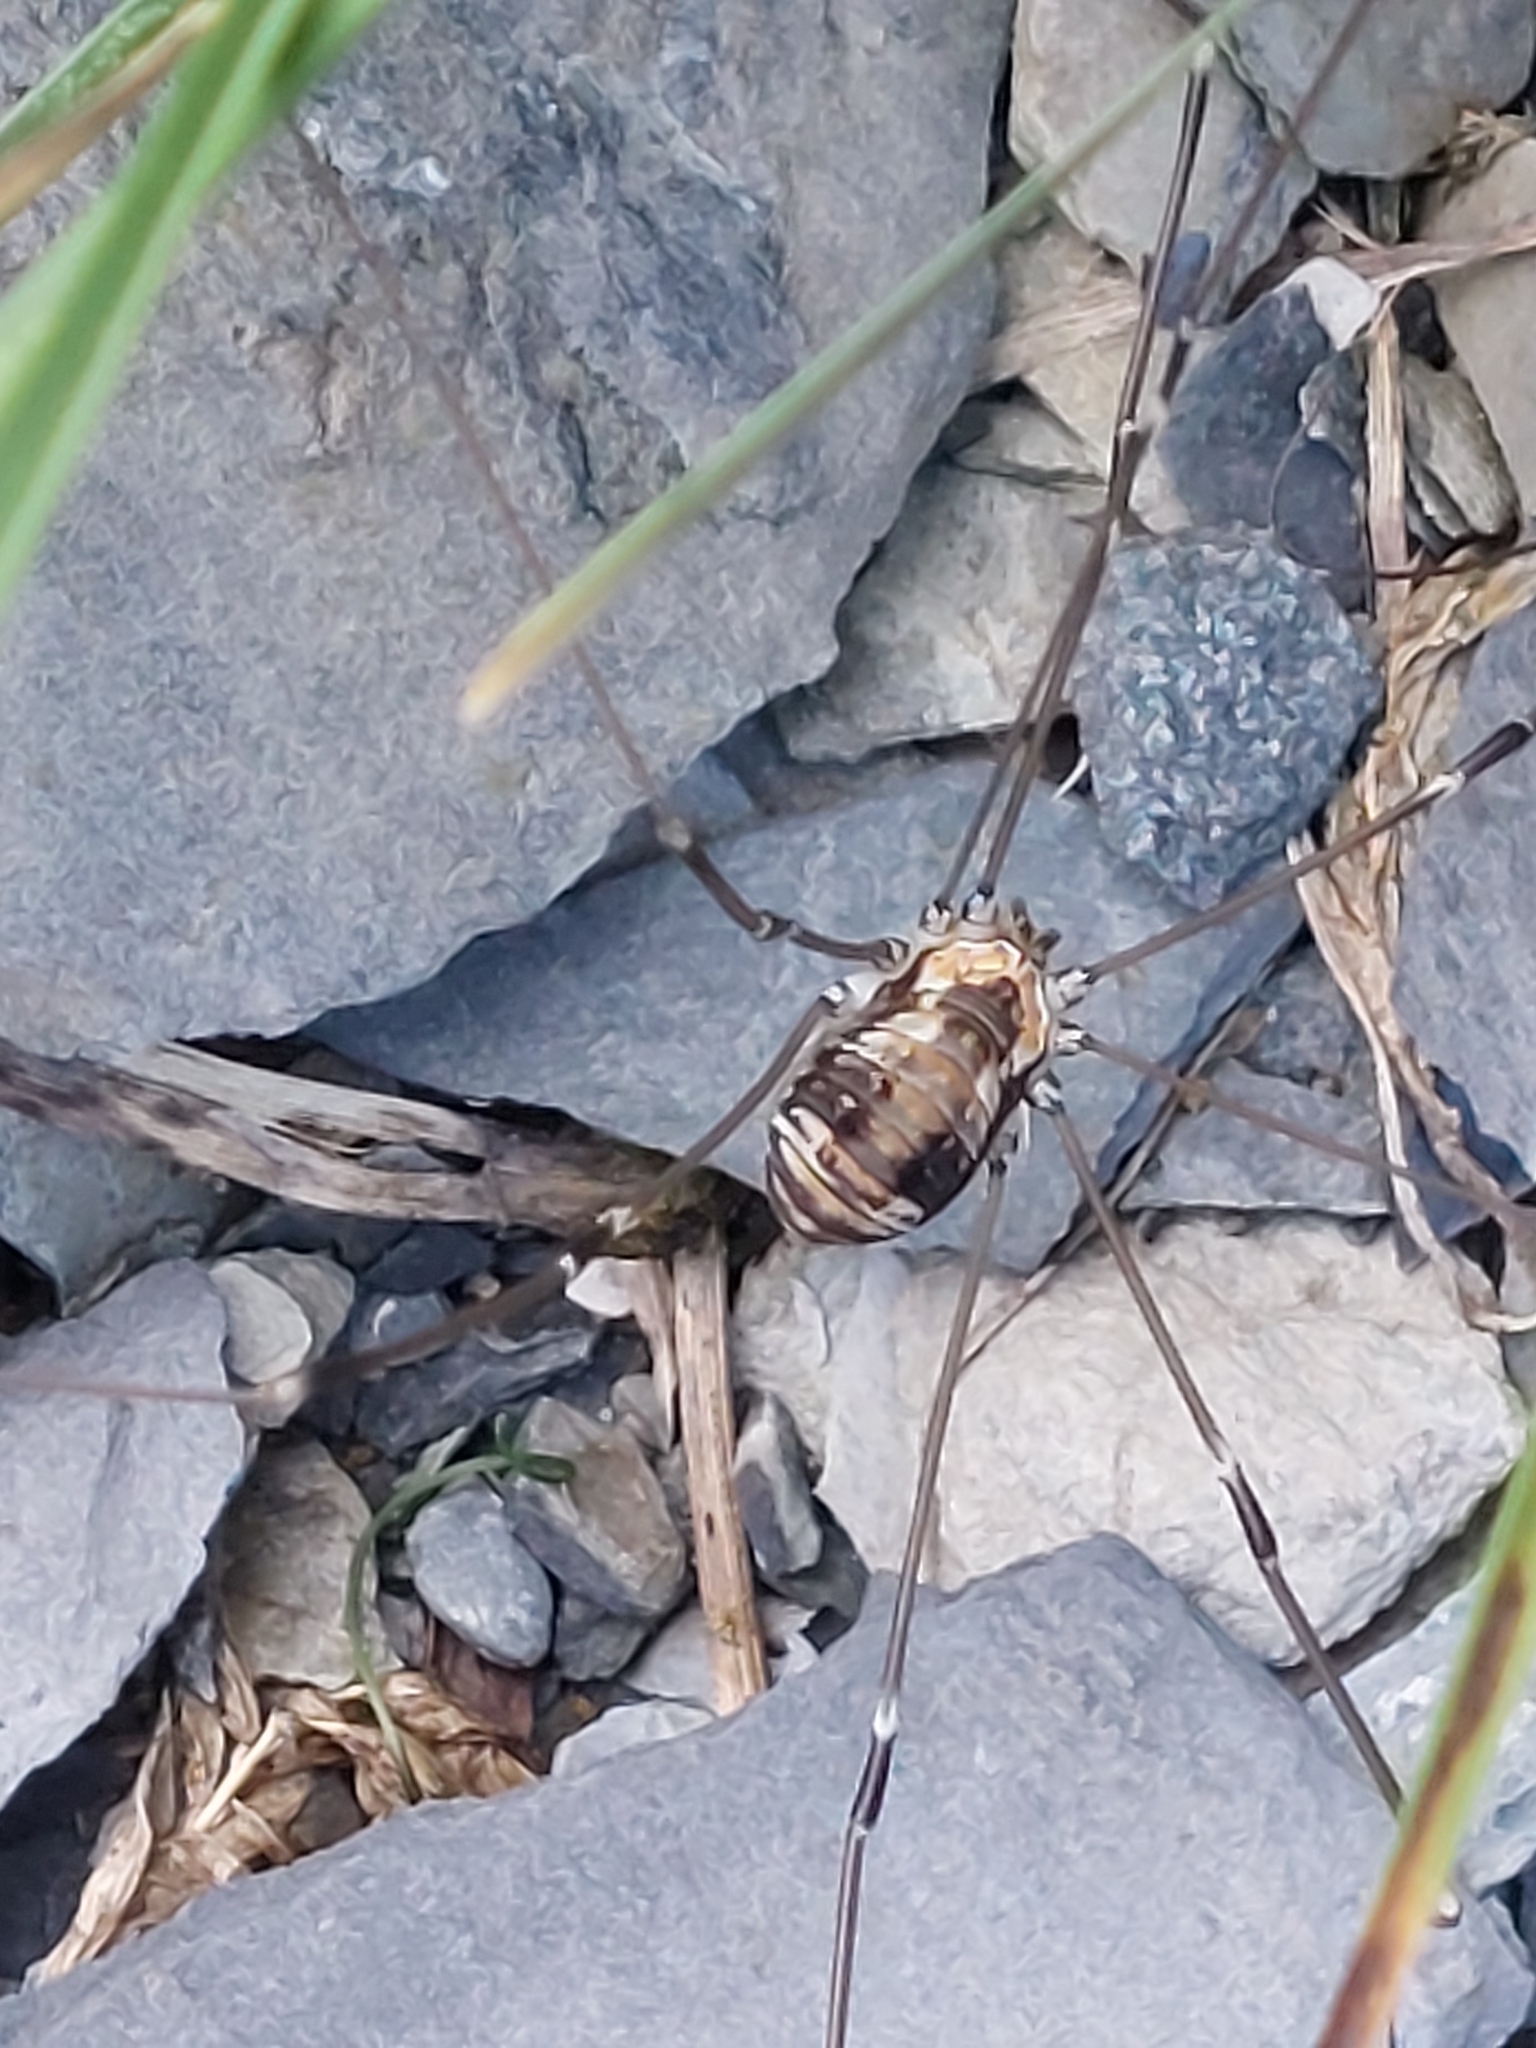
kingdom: Animalia
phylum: Arthropoda
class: Arachnida
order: Opiliones
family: Sclerosomatidae
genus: Leiobunum
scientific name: Leiobunum limbatum
